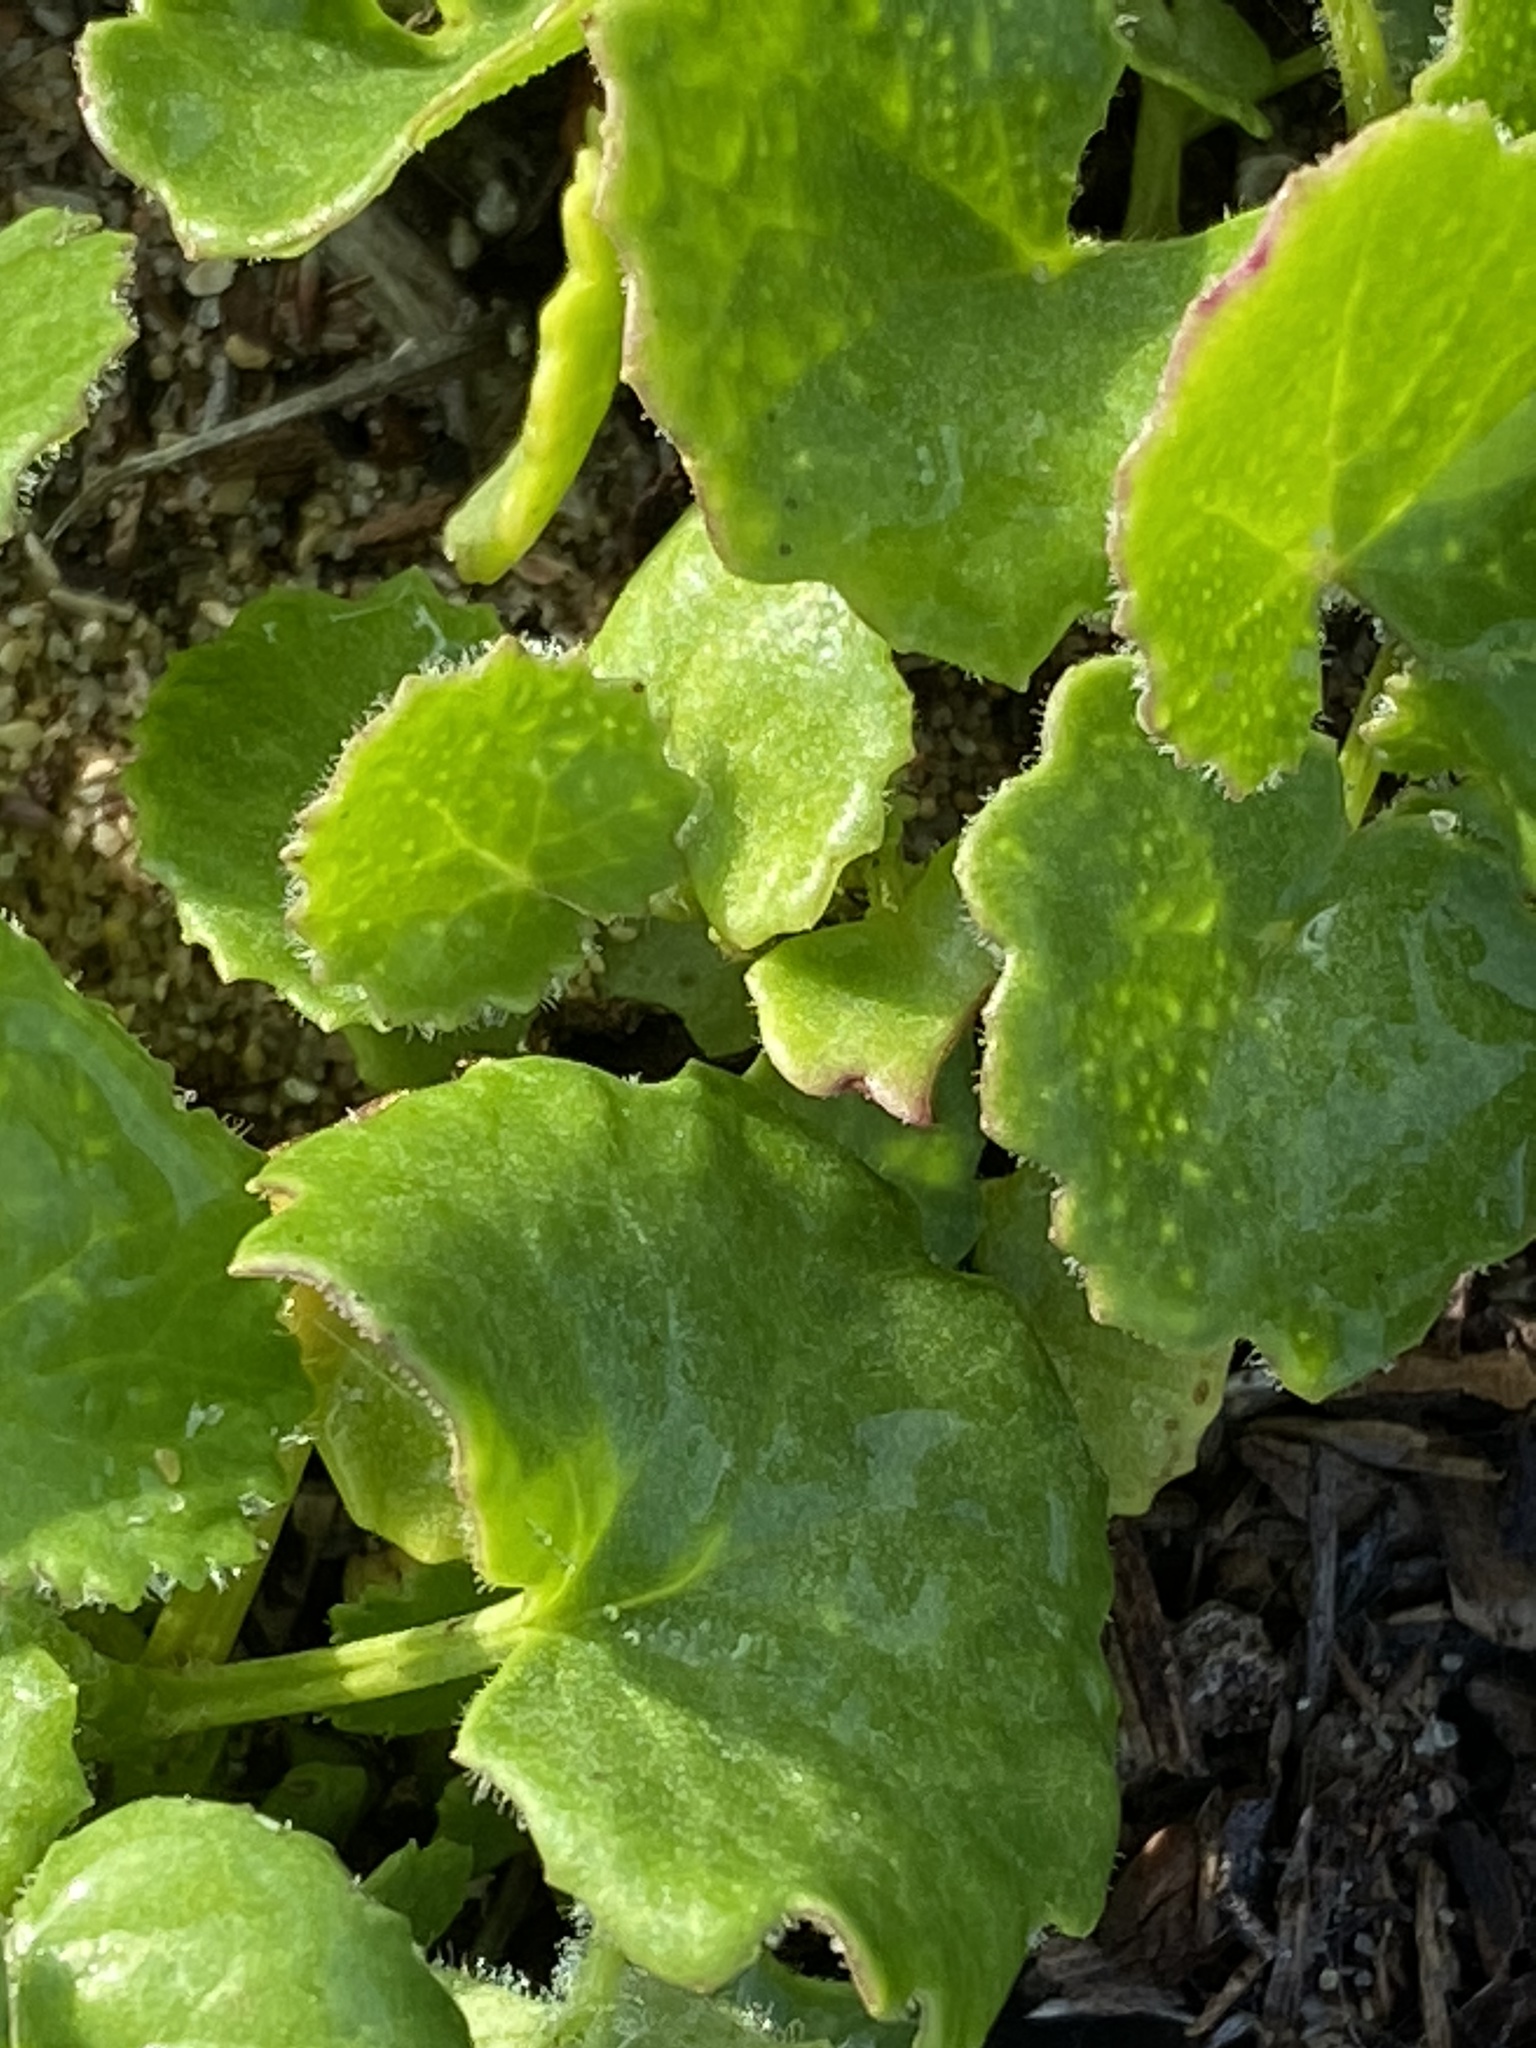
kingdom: Plantae
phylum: Tracheophyta
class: Magnoliopsida
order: Asterales
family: Asteraceae
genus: Cineraria
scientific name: Cineraria geifolia
